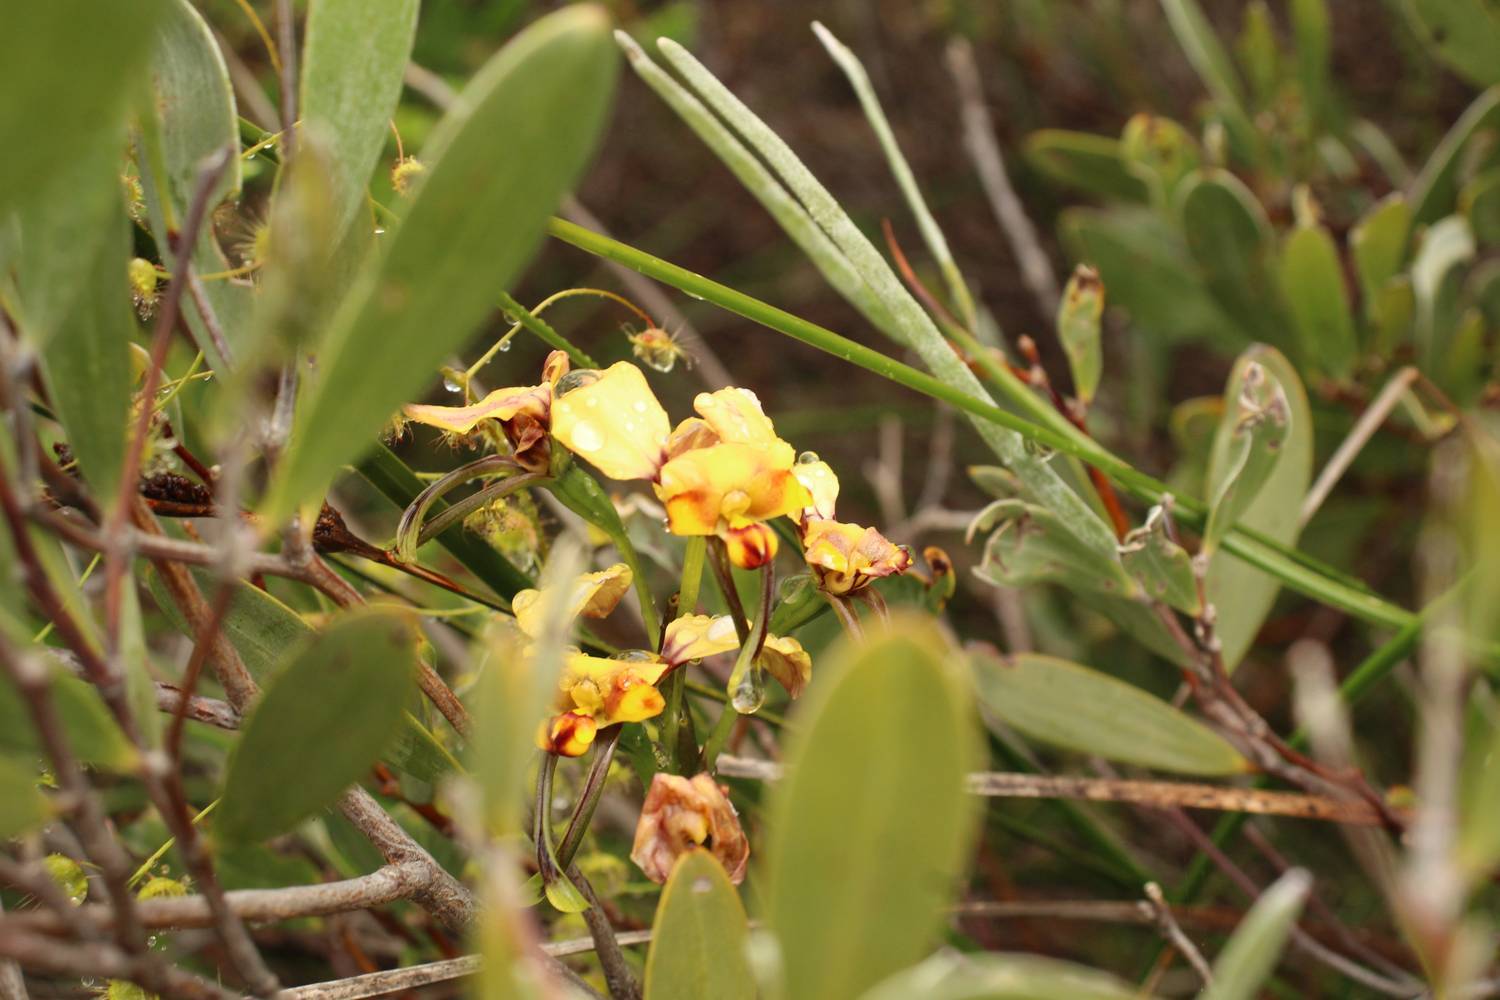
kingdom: Plantae
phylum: Tracheophyta
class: Liliopsida
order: Asparagales
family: Orchidaceae
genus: Diuris
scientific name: Diuris conspicillata
